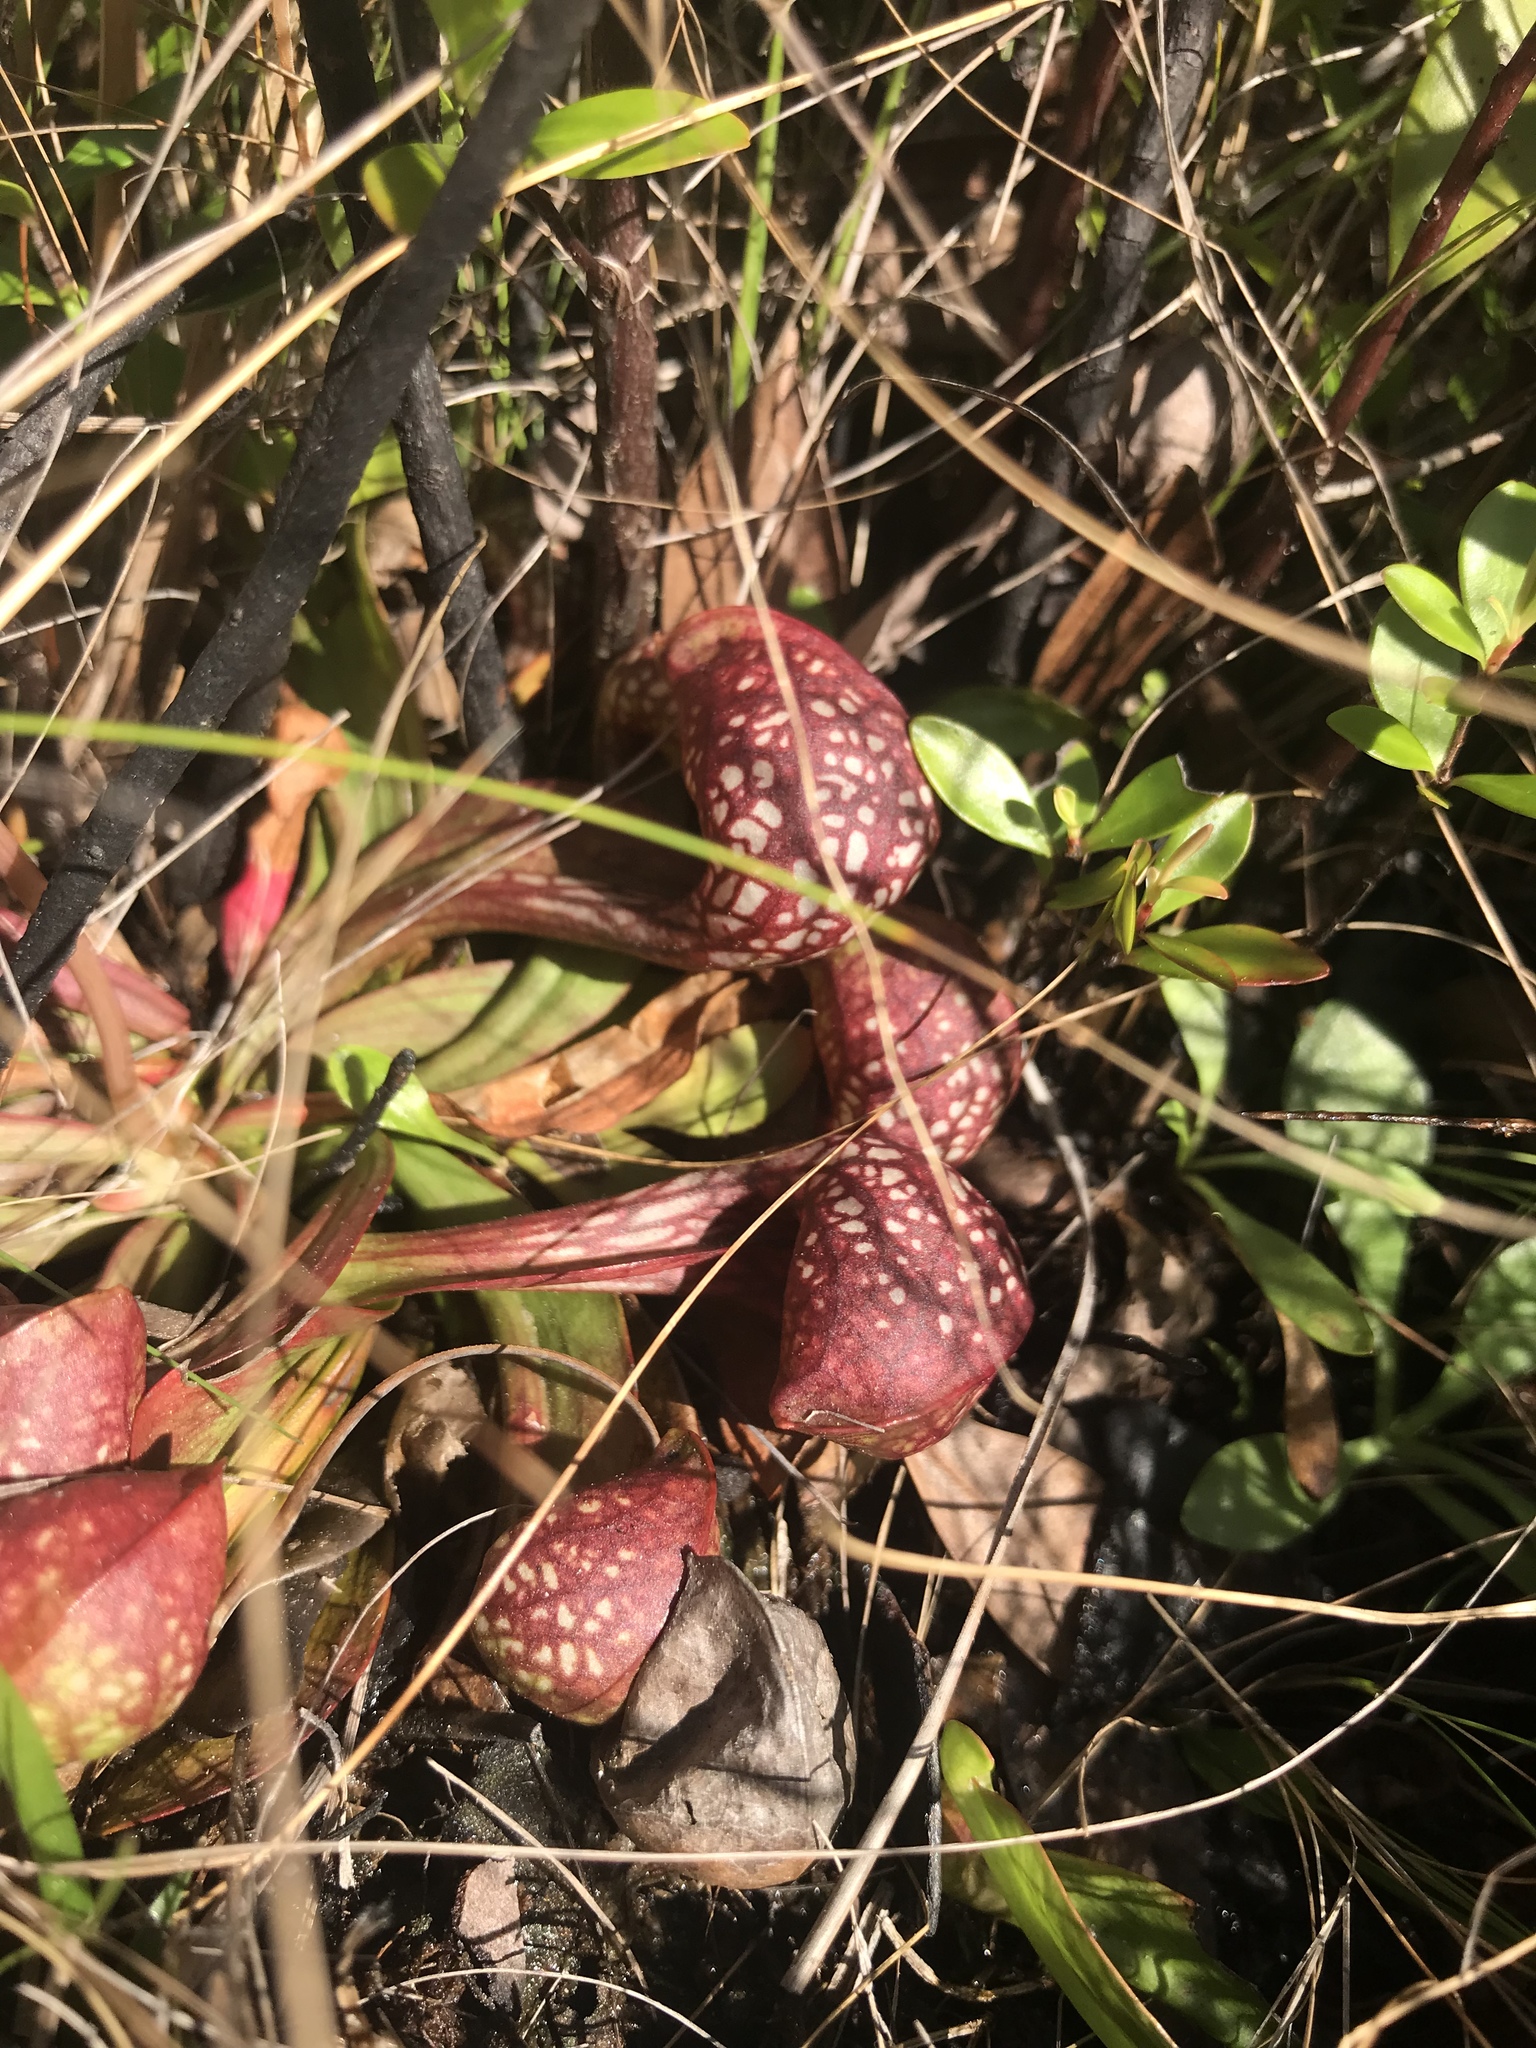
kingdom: Plantae
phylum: Tracheophyta
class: Magnoliopsida
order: Ericales
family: Sarraceniaceae
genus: Sarracenia
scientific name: Sarracenia psittacina
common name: Parrot pitcherplant
